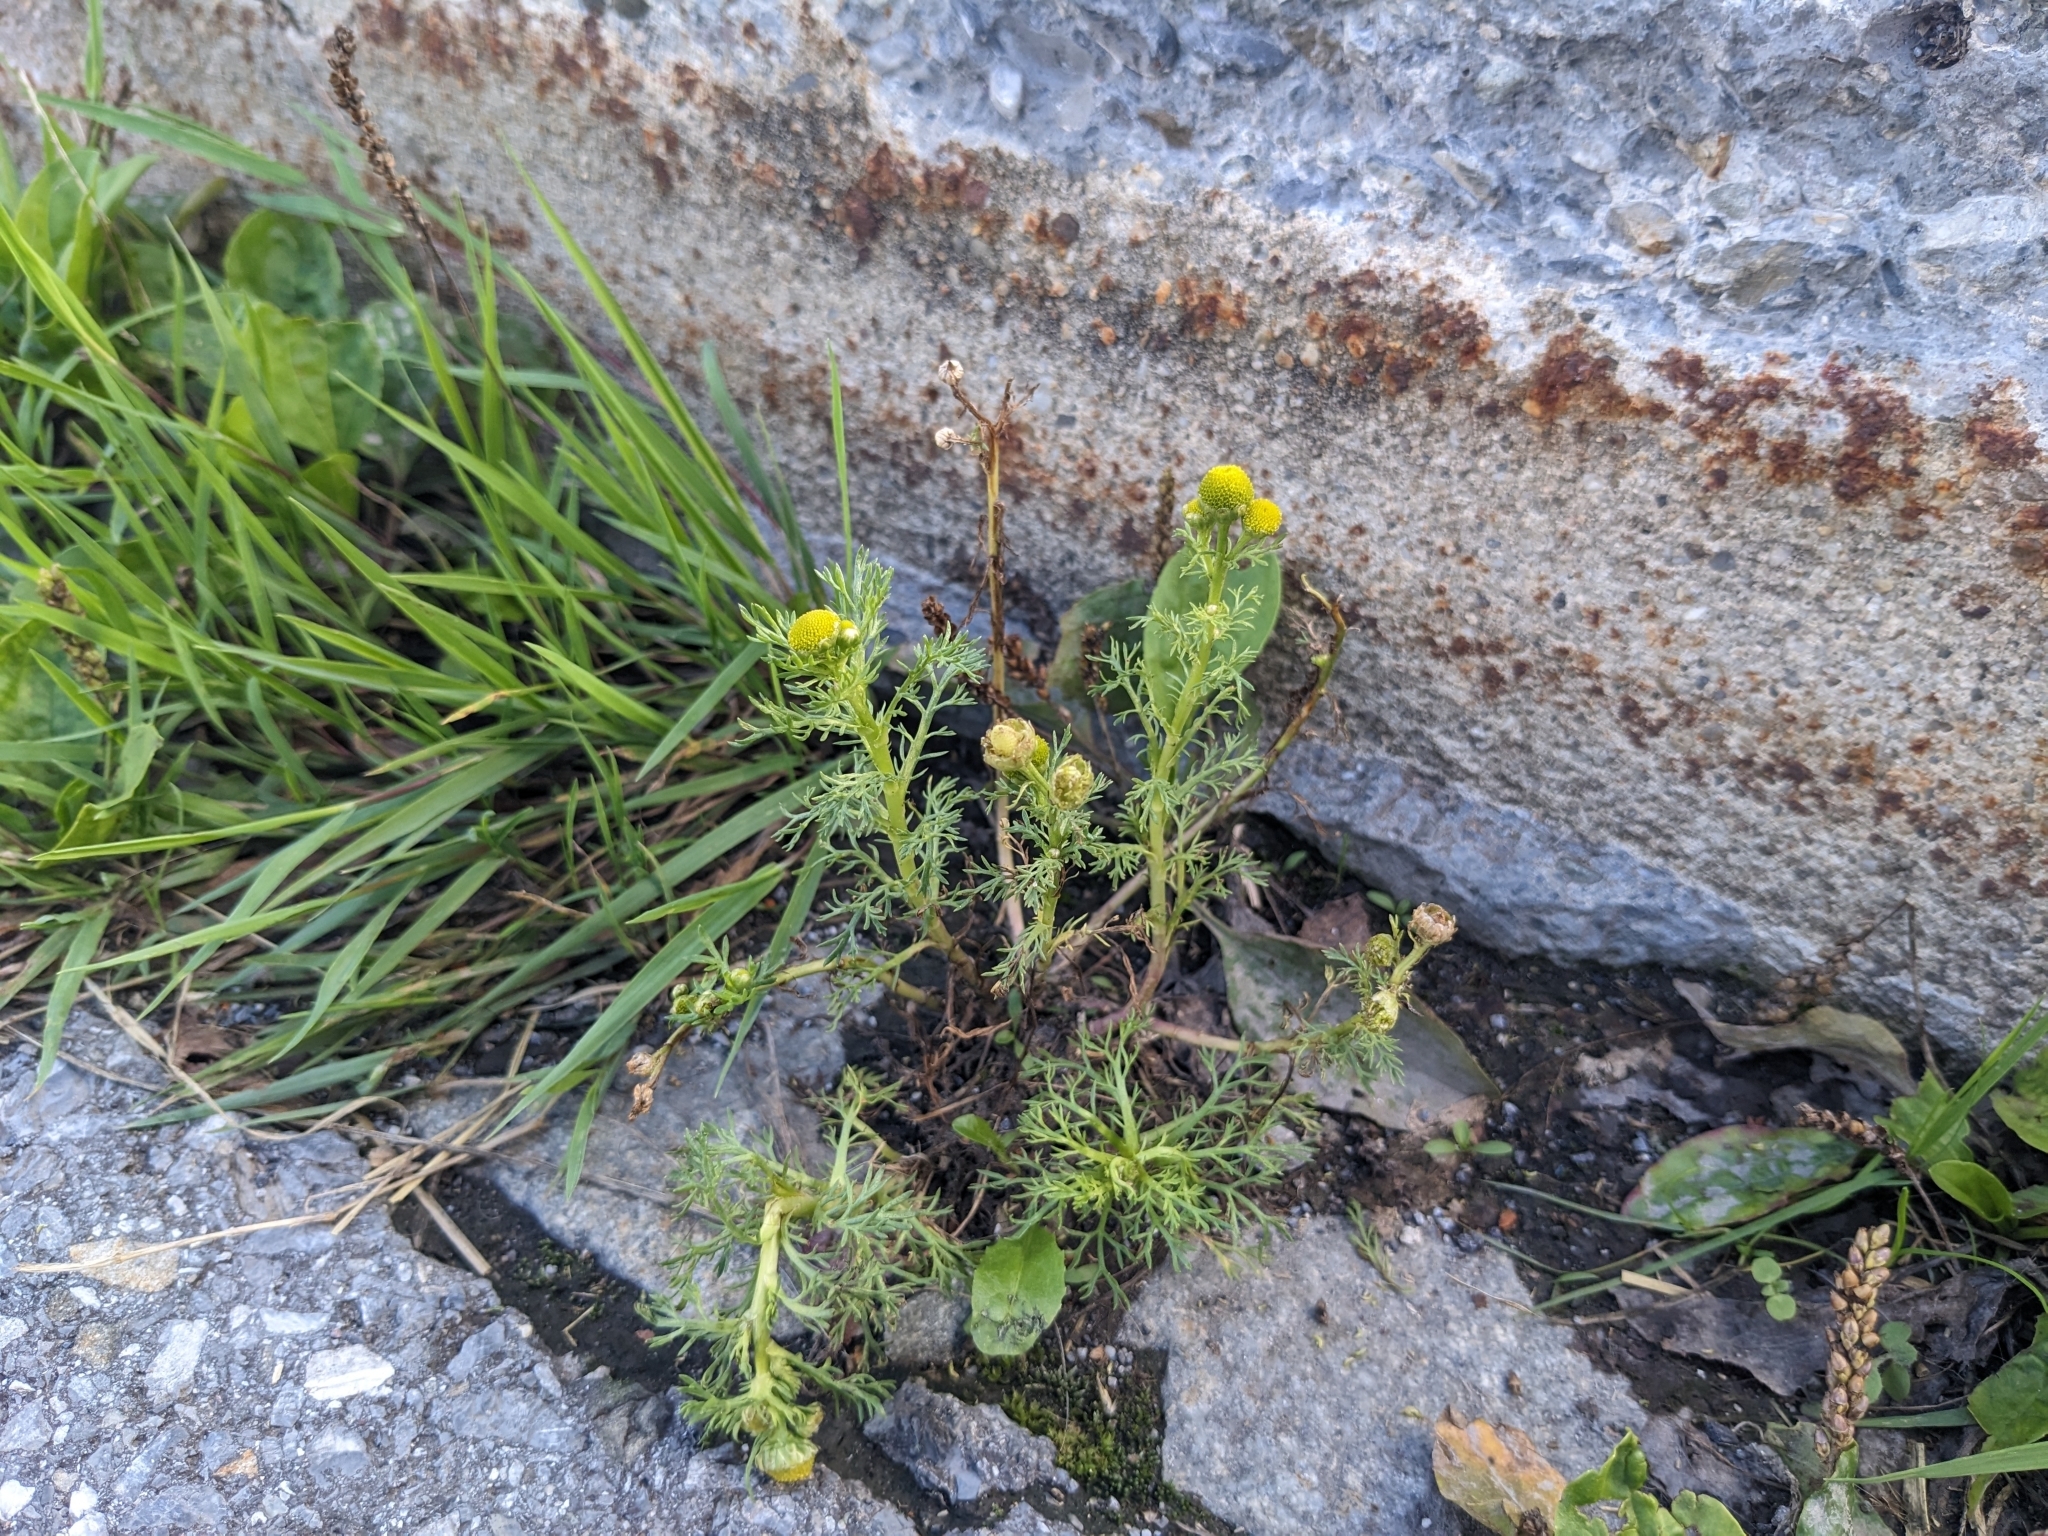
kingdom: Plantae
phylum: Tracheophyta
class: Magnoliopsida
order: Asterales
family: Asteraceae
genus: Matricaria
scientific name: Matricaria discoidea
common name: Disc mayweed
